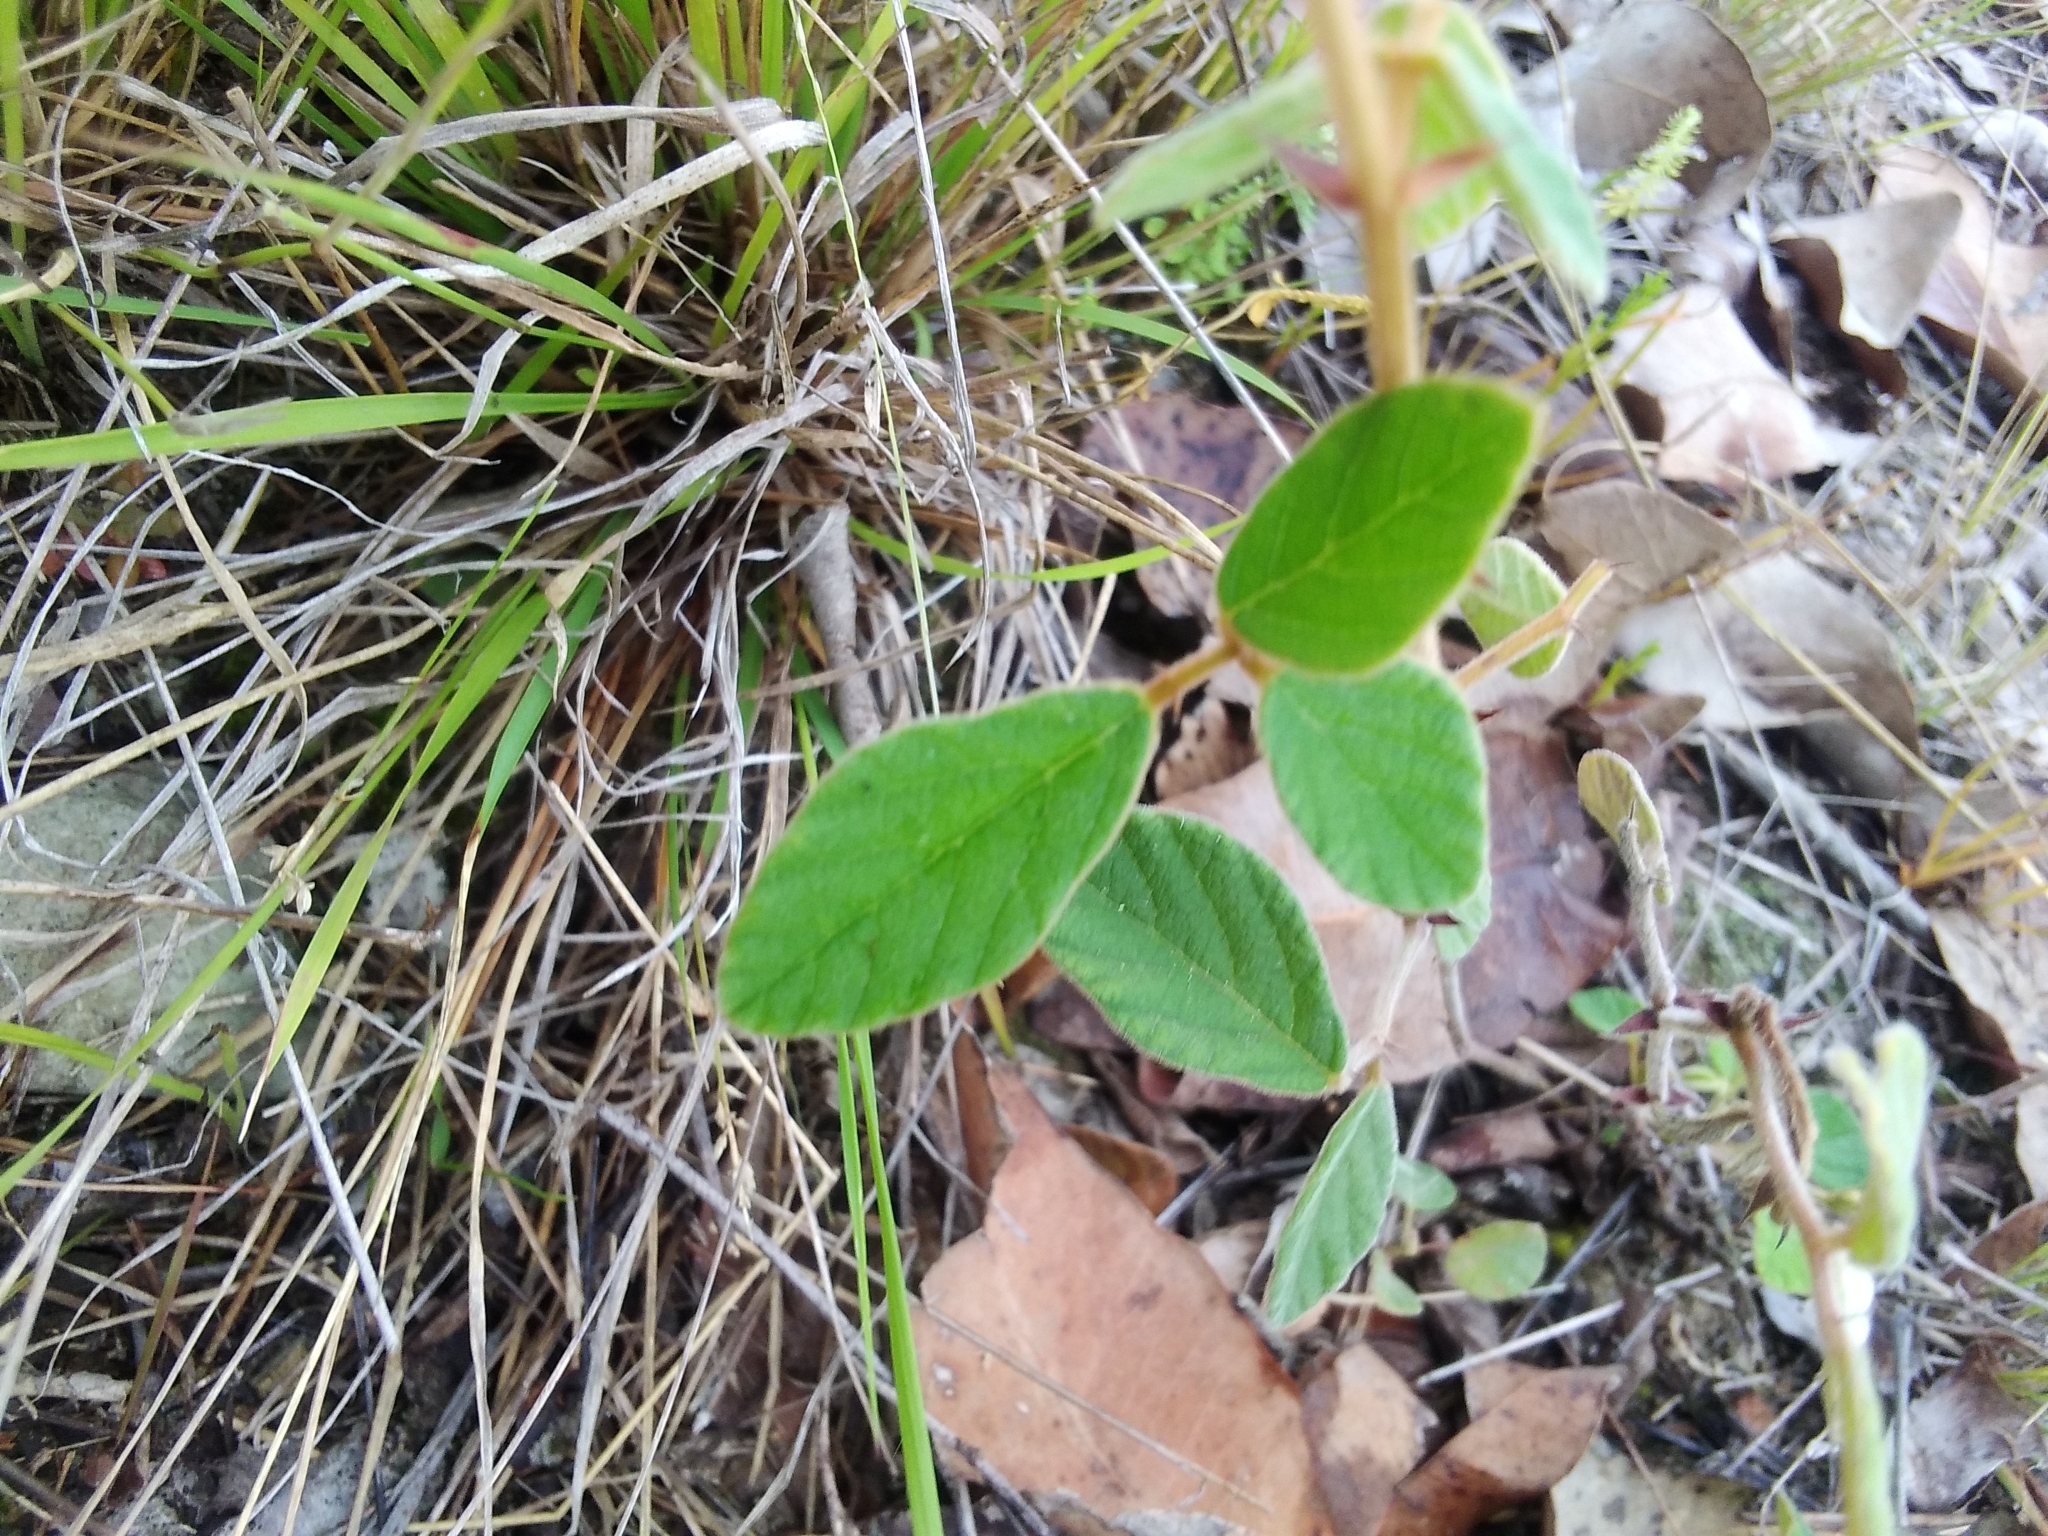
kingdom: Plantae
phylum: Tracheophyta
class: Magnoliopsida
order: Fabales
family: Fabaceae
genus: Maekawaea
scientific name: Maekawaea rhytidophylla
